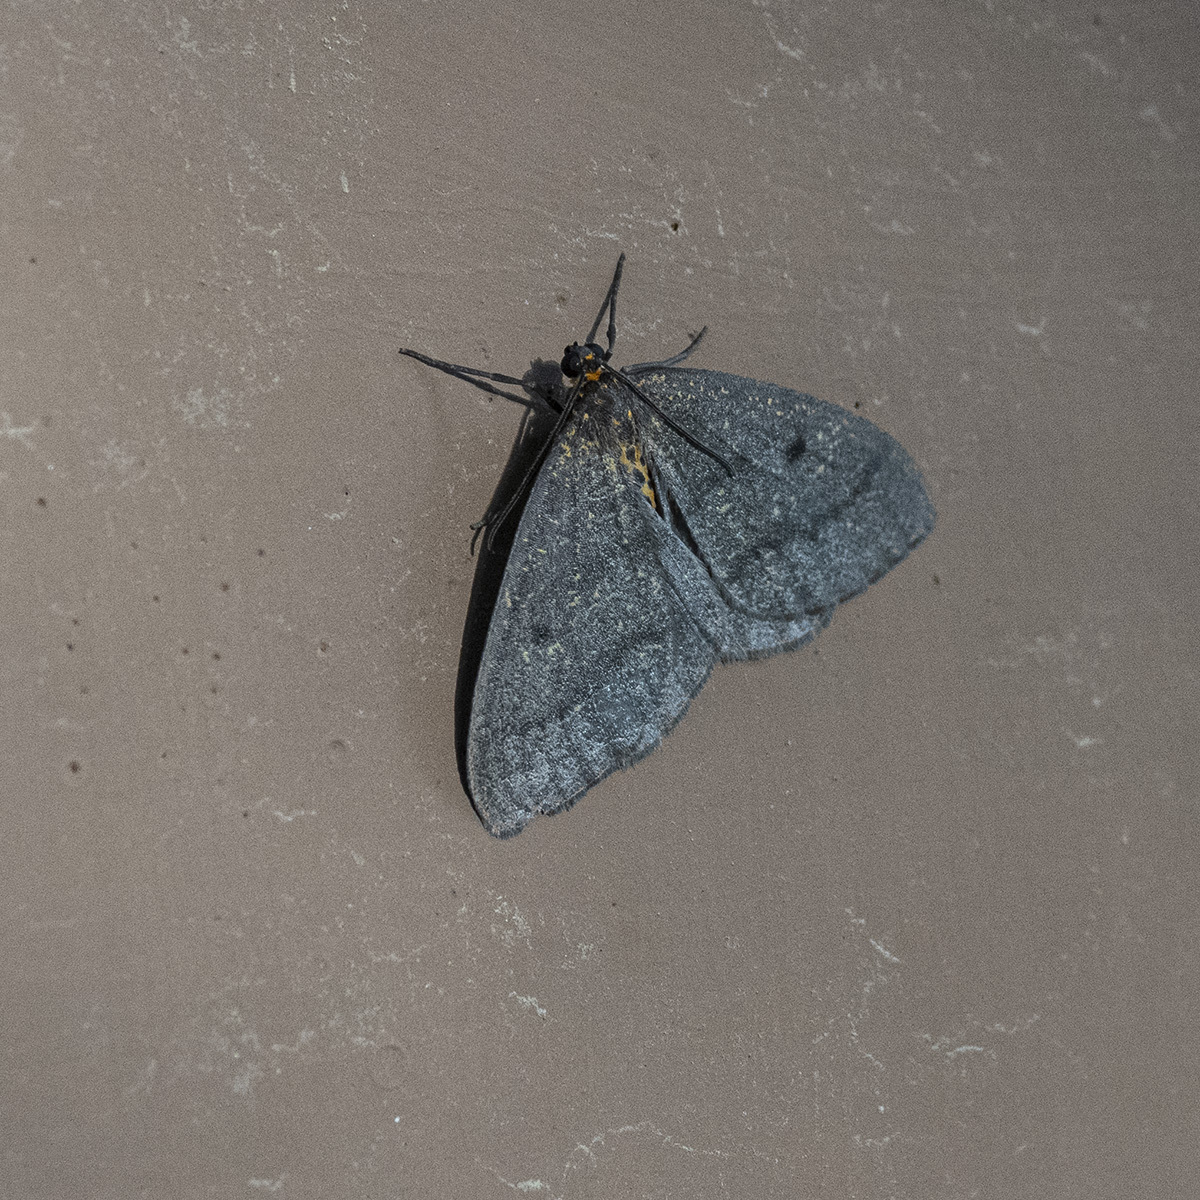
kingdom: Animalia
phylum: Arthropoda
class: Insecta
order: Lepidoptera
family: Geometridae
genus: Abraxas
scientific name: Abraxas poliaria
